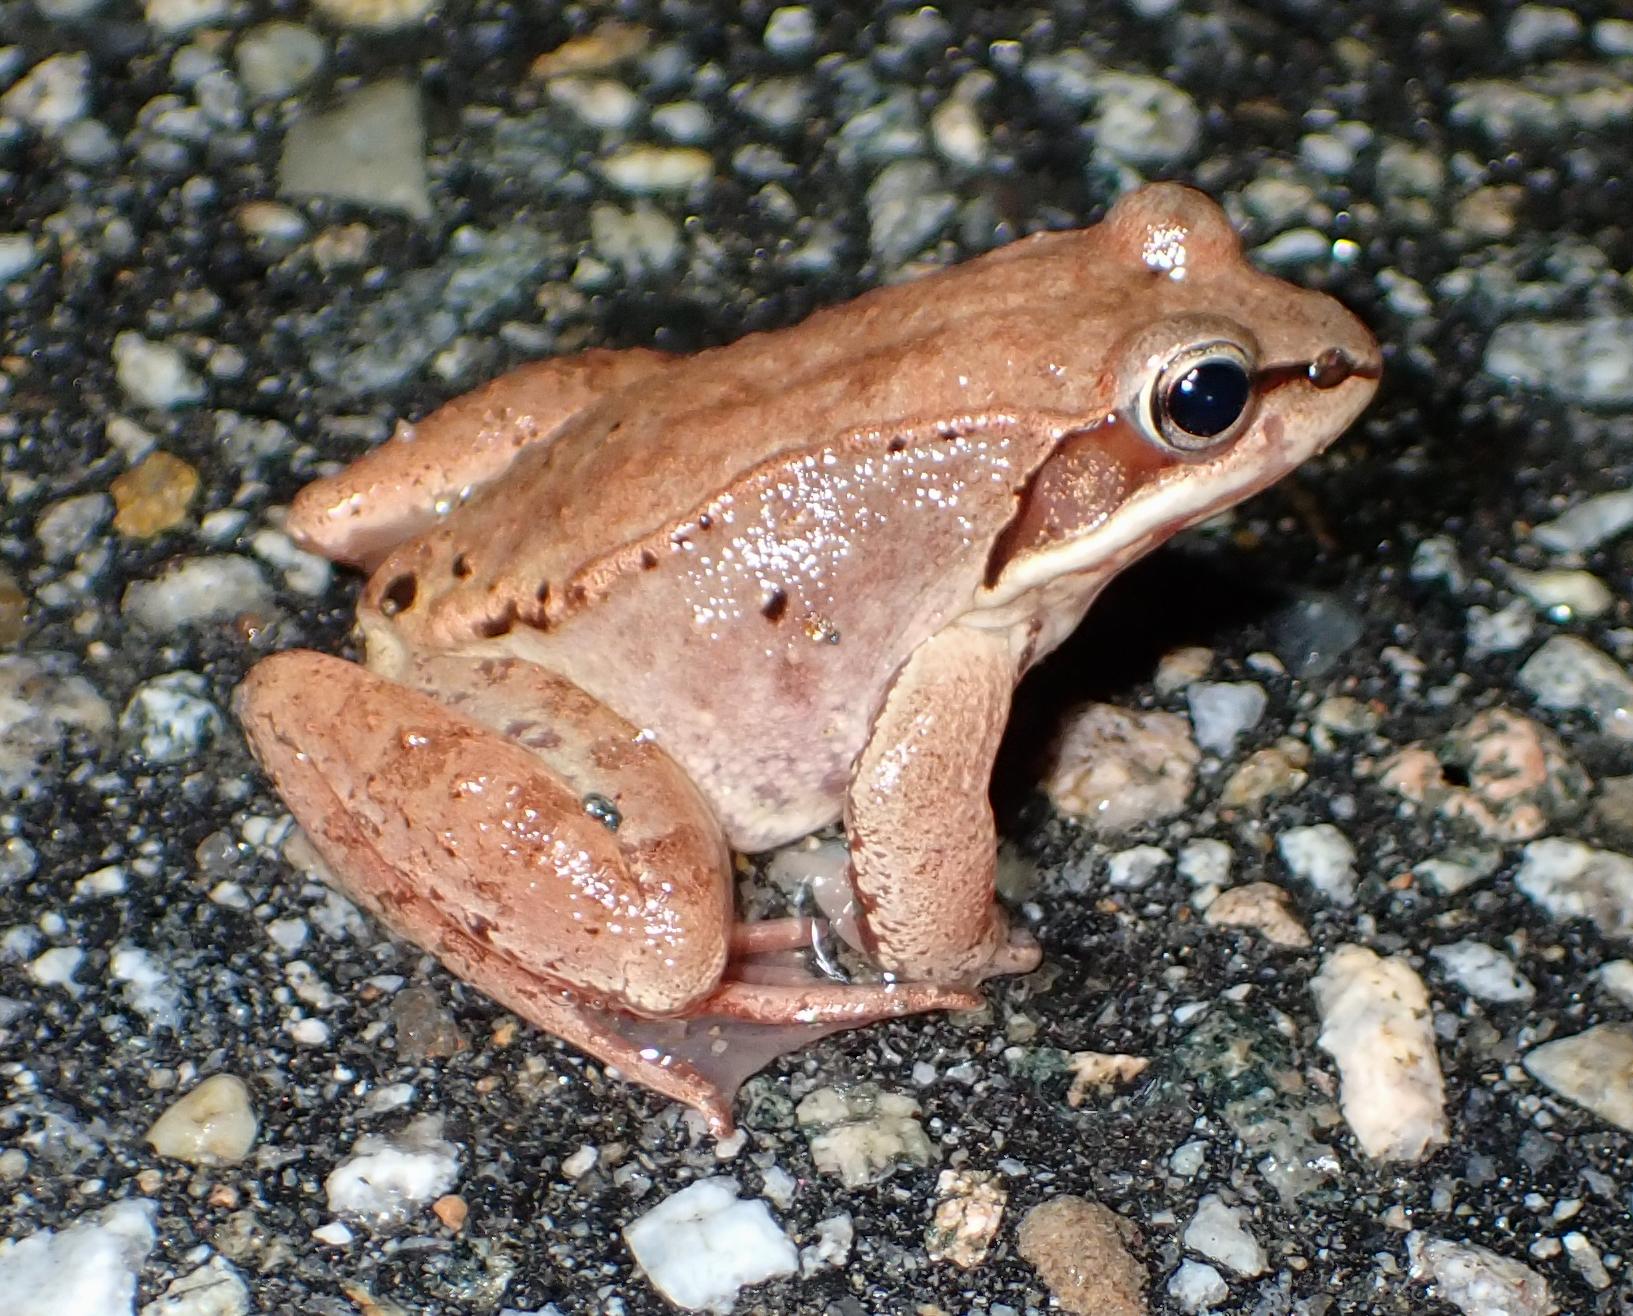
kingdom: Animalia
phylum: Chordata
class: Amphibia
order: Anura
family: Ranidae
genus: Lithobates
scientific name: Lithobates sylvaticus
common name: Wood frog
